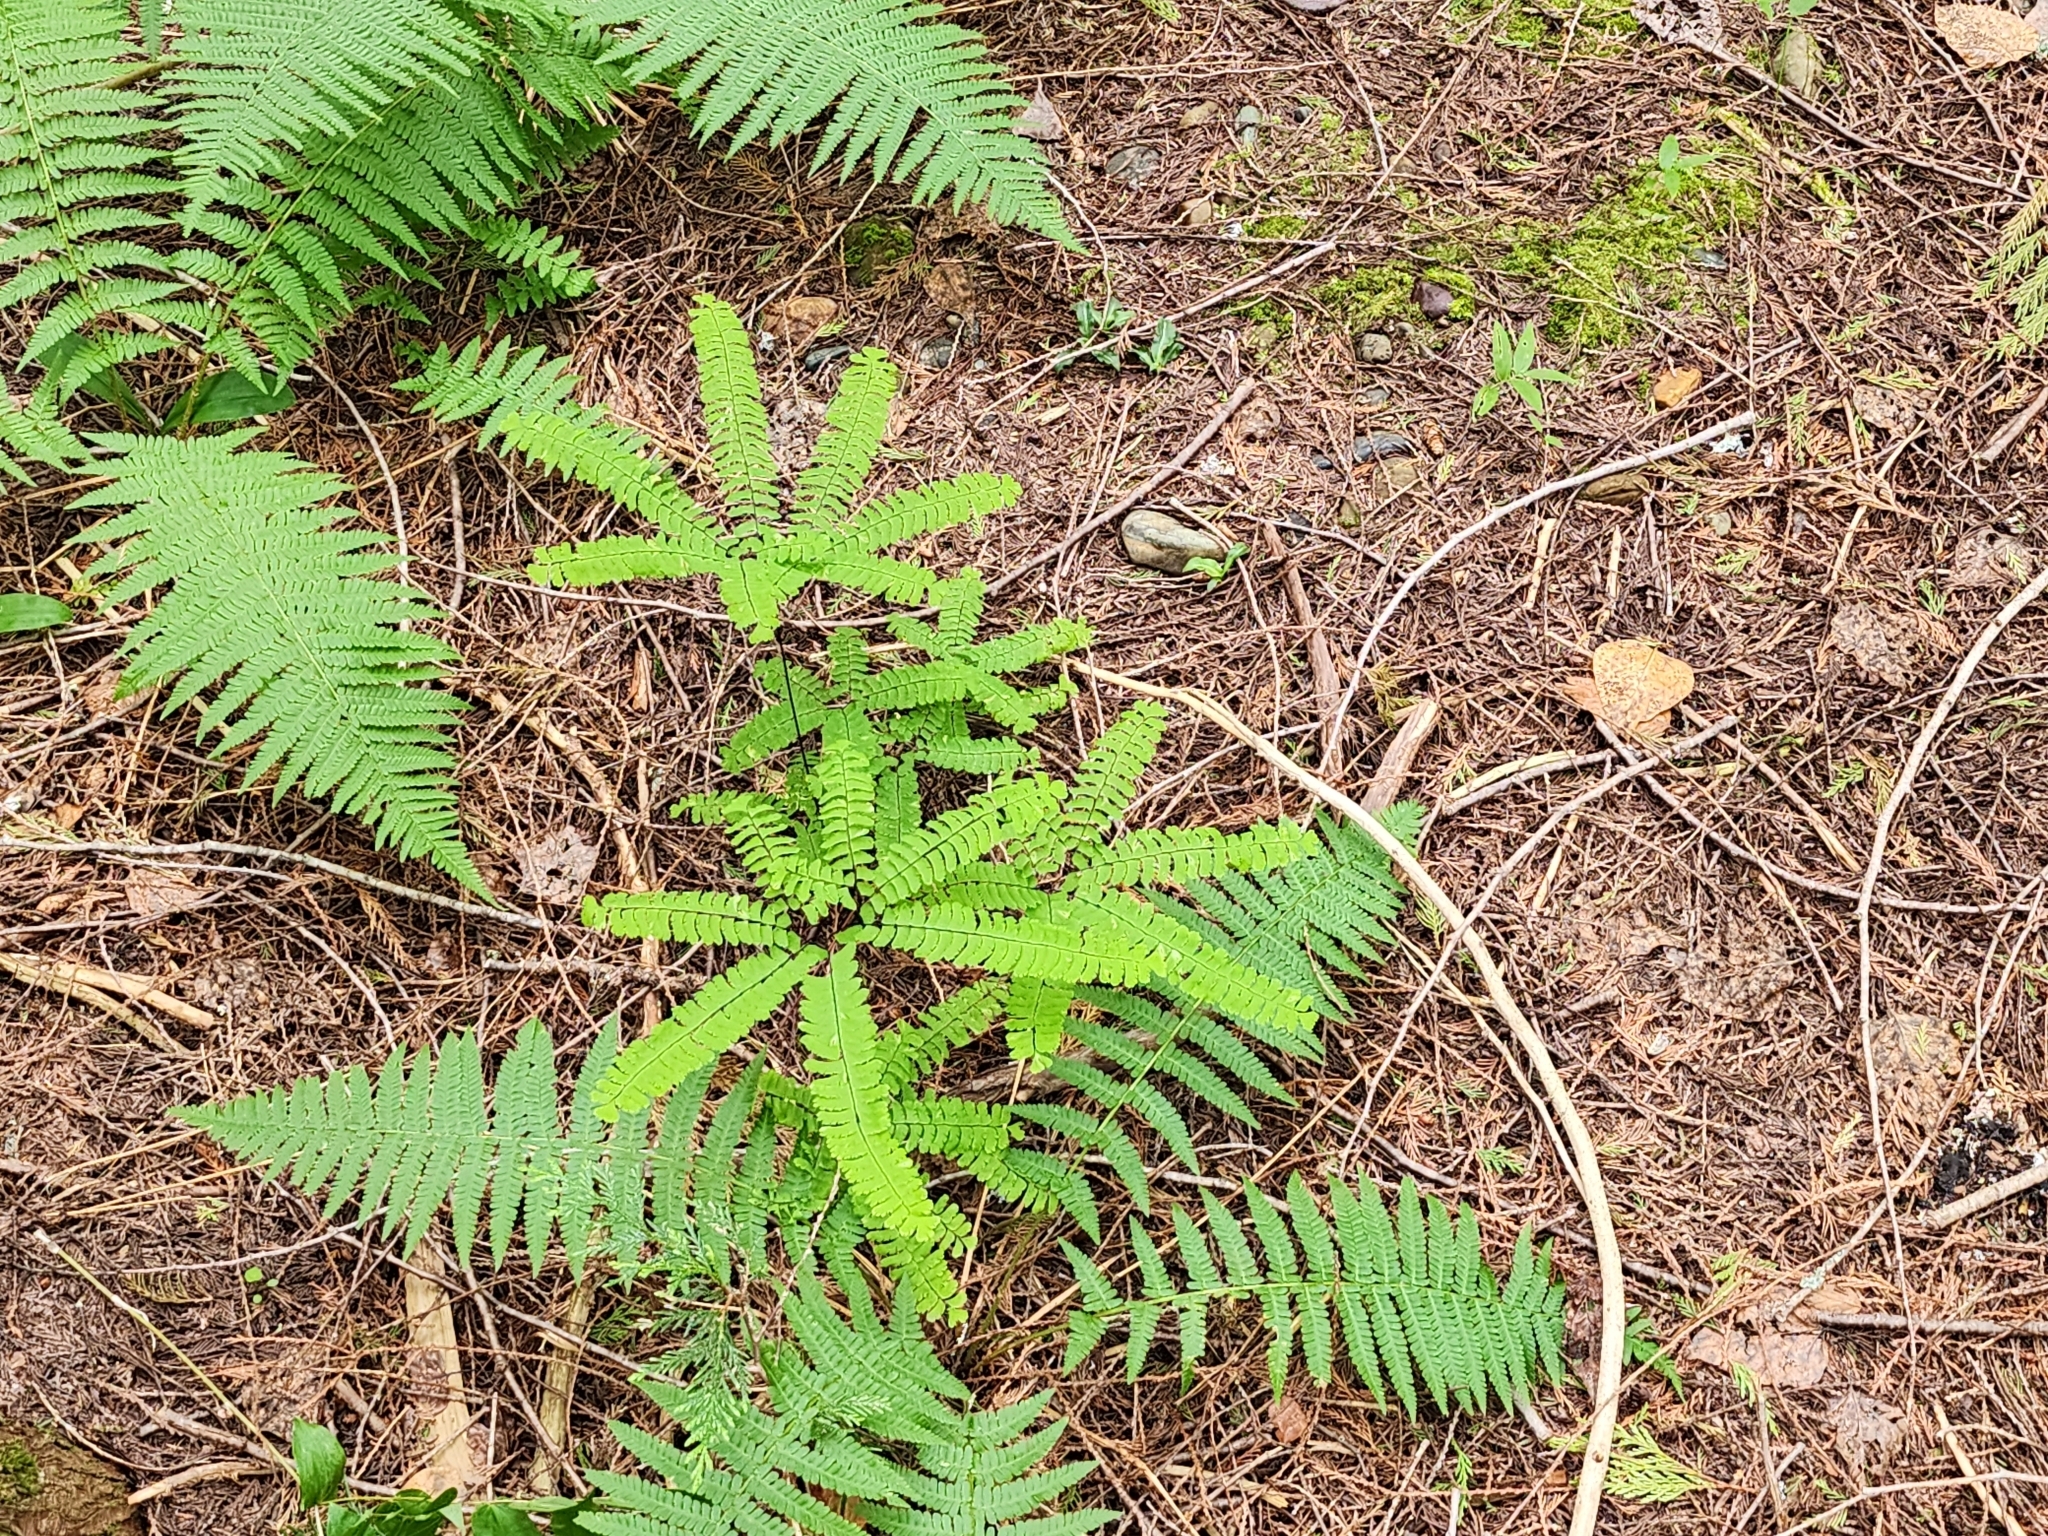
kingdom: Plantae
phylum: Tracheophyta
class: Polypodiopsida
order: Polypodiales
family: Pteridaceae
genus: Adiantum
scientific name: Adiantum aleuticum
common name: Aleutian maidenhair fern
